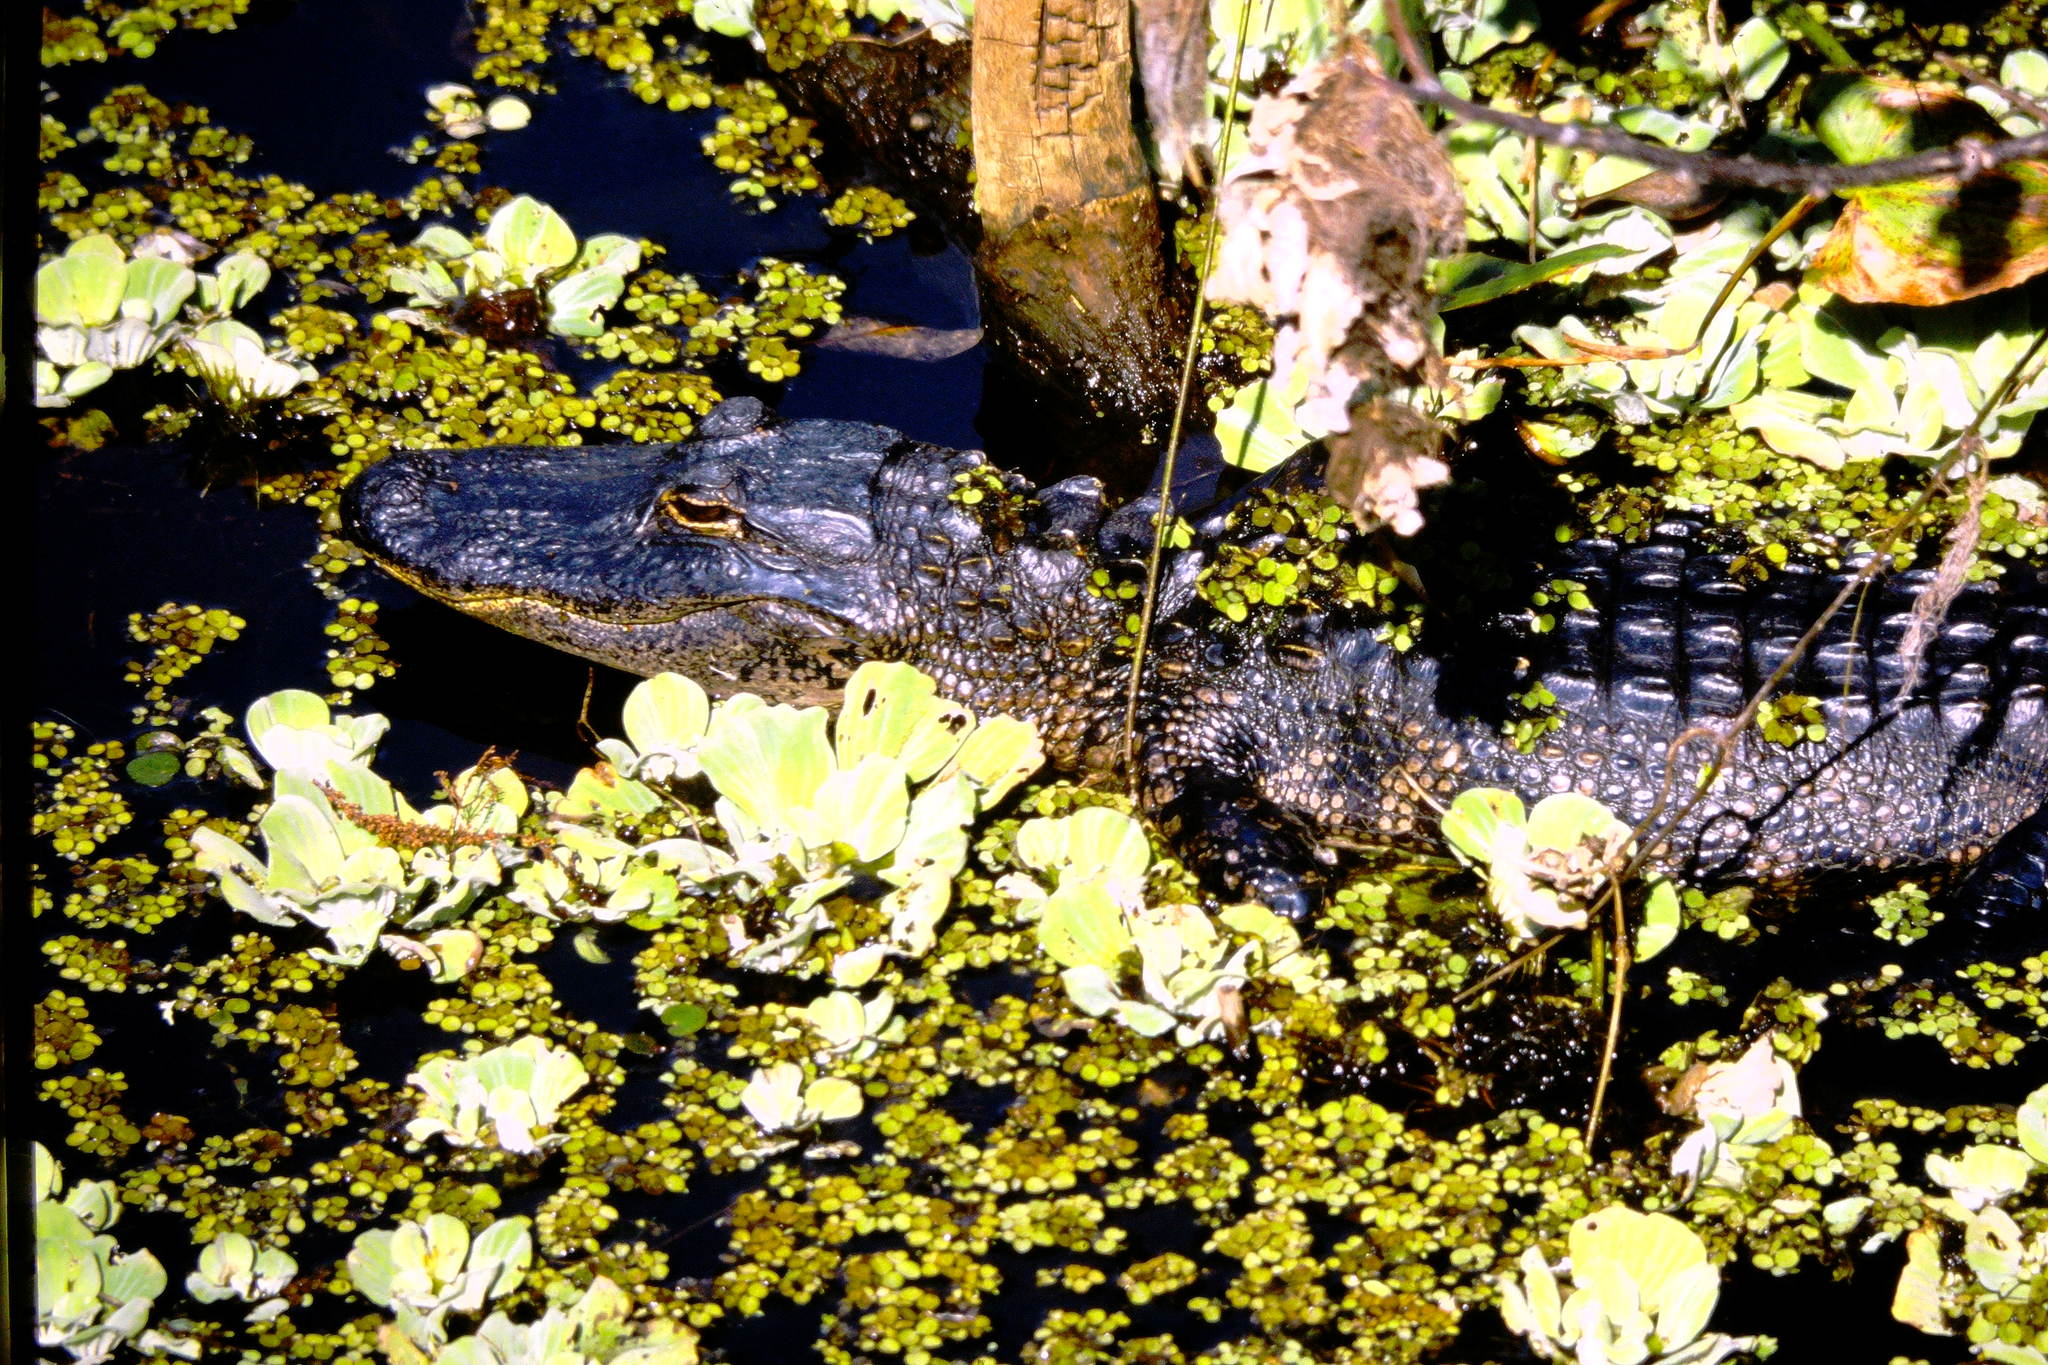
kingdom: Animalia
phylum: Chordata
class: Crocodylia
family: Alligatoridae
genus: Alligator
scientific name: Alligator mississippiensis
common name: American alligator
